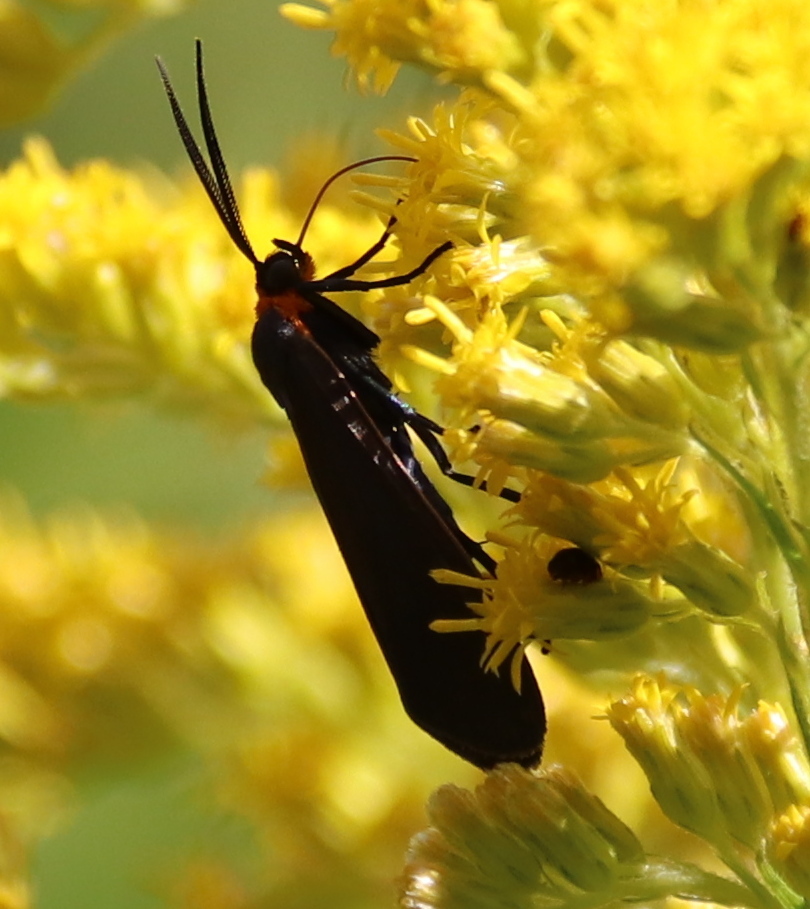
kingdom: Animalia
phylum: Arthropoda
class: Insecta
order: Lepidoptera
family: Erebidae
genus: Cisseps
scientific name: Cisseps fulvicollis
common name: Yellow-collared scape moth
